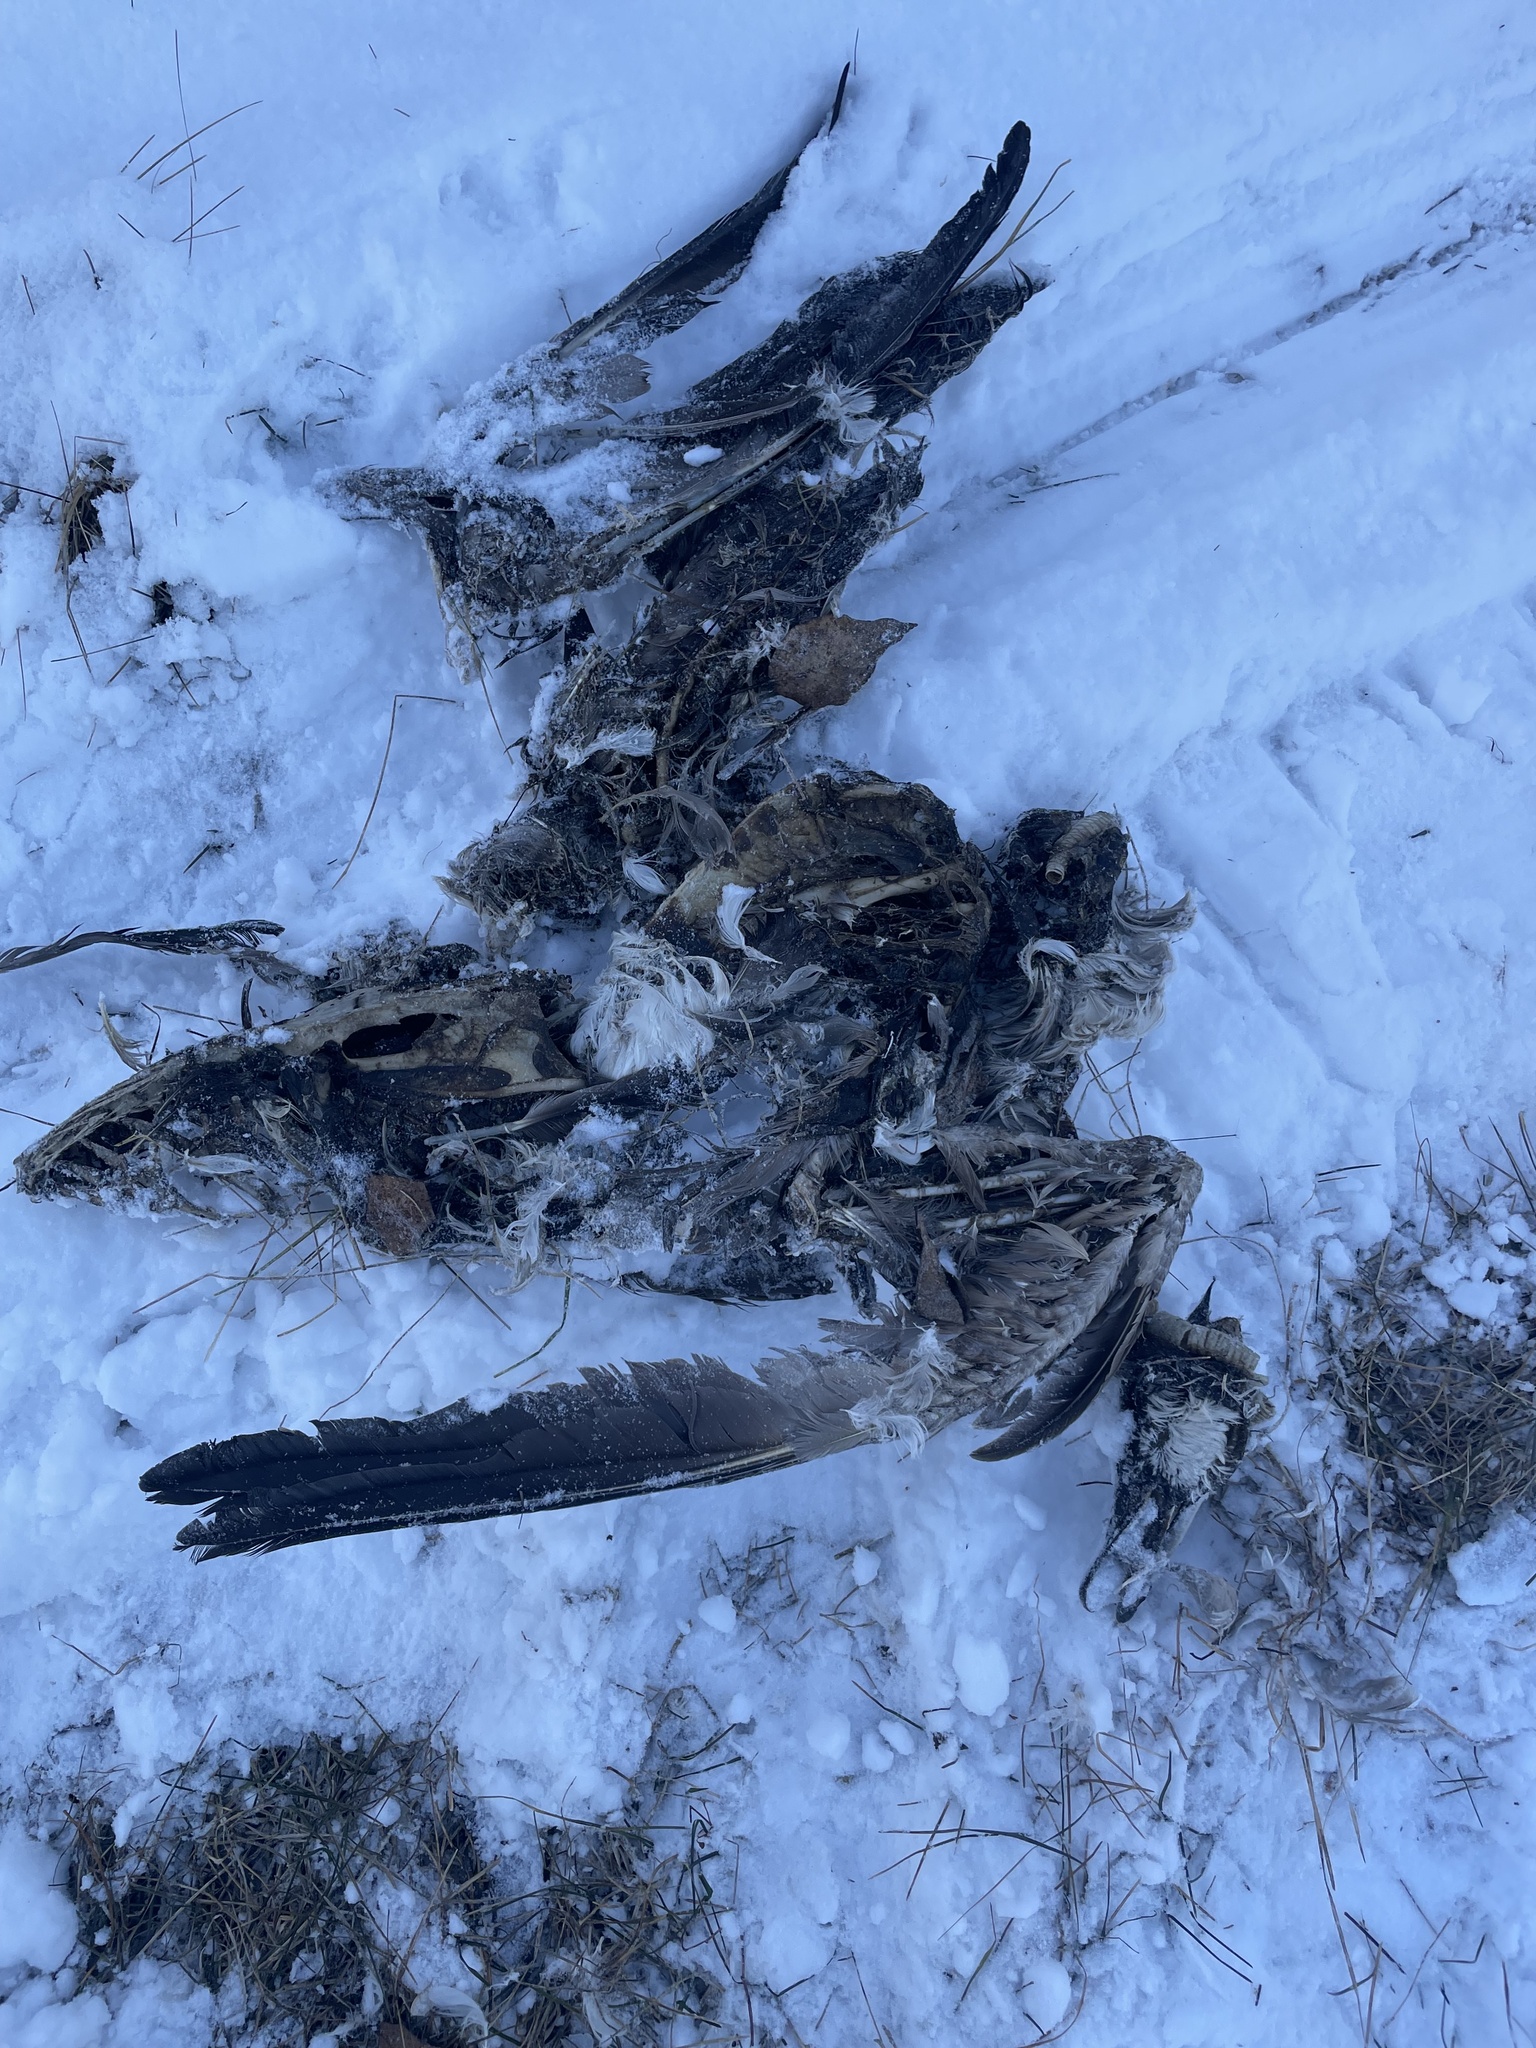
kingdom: Animalia
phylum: Chordata
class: Aves
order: Anseriformes
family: Anatidae
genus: Branta
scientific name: Branta canadensis
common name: Canada goose
